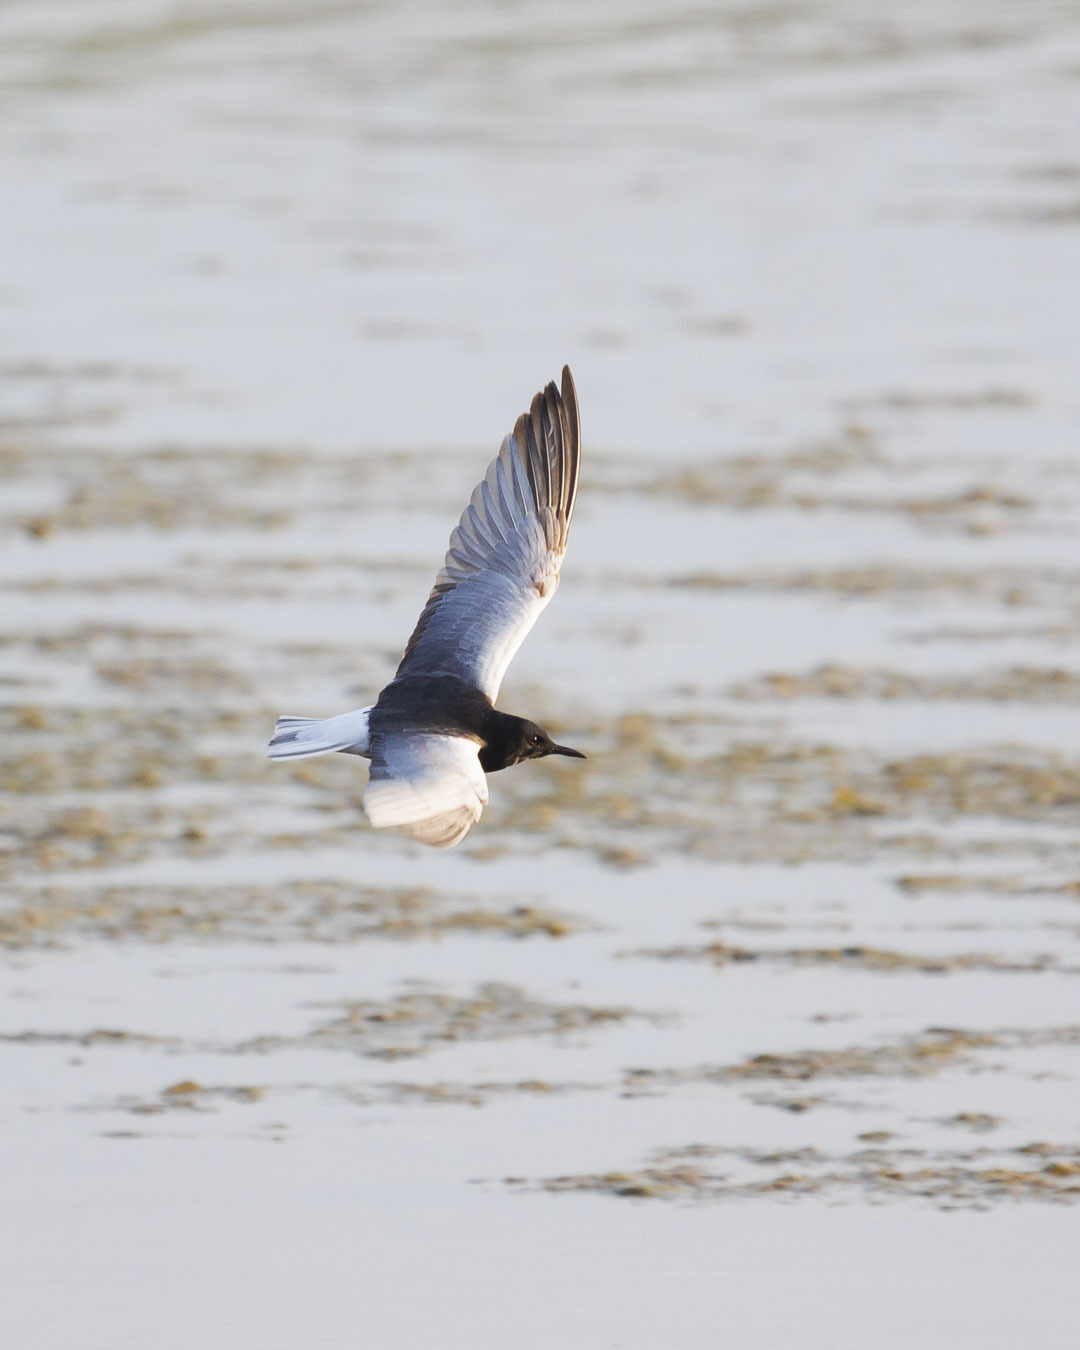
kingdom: Animalia
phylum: Chordata
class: Aves
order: Charadriiformes
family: Laridae
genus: Chlidonias
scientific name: Chlidonias leucopterus
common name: White-winged tern
